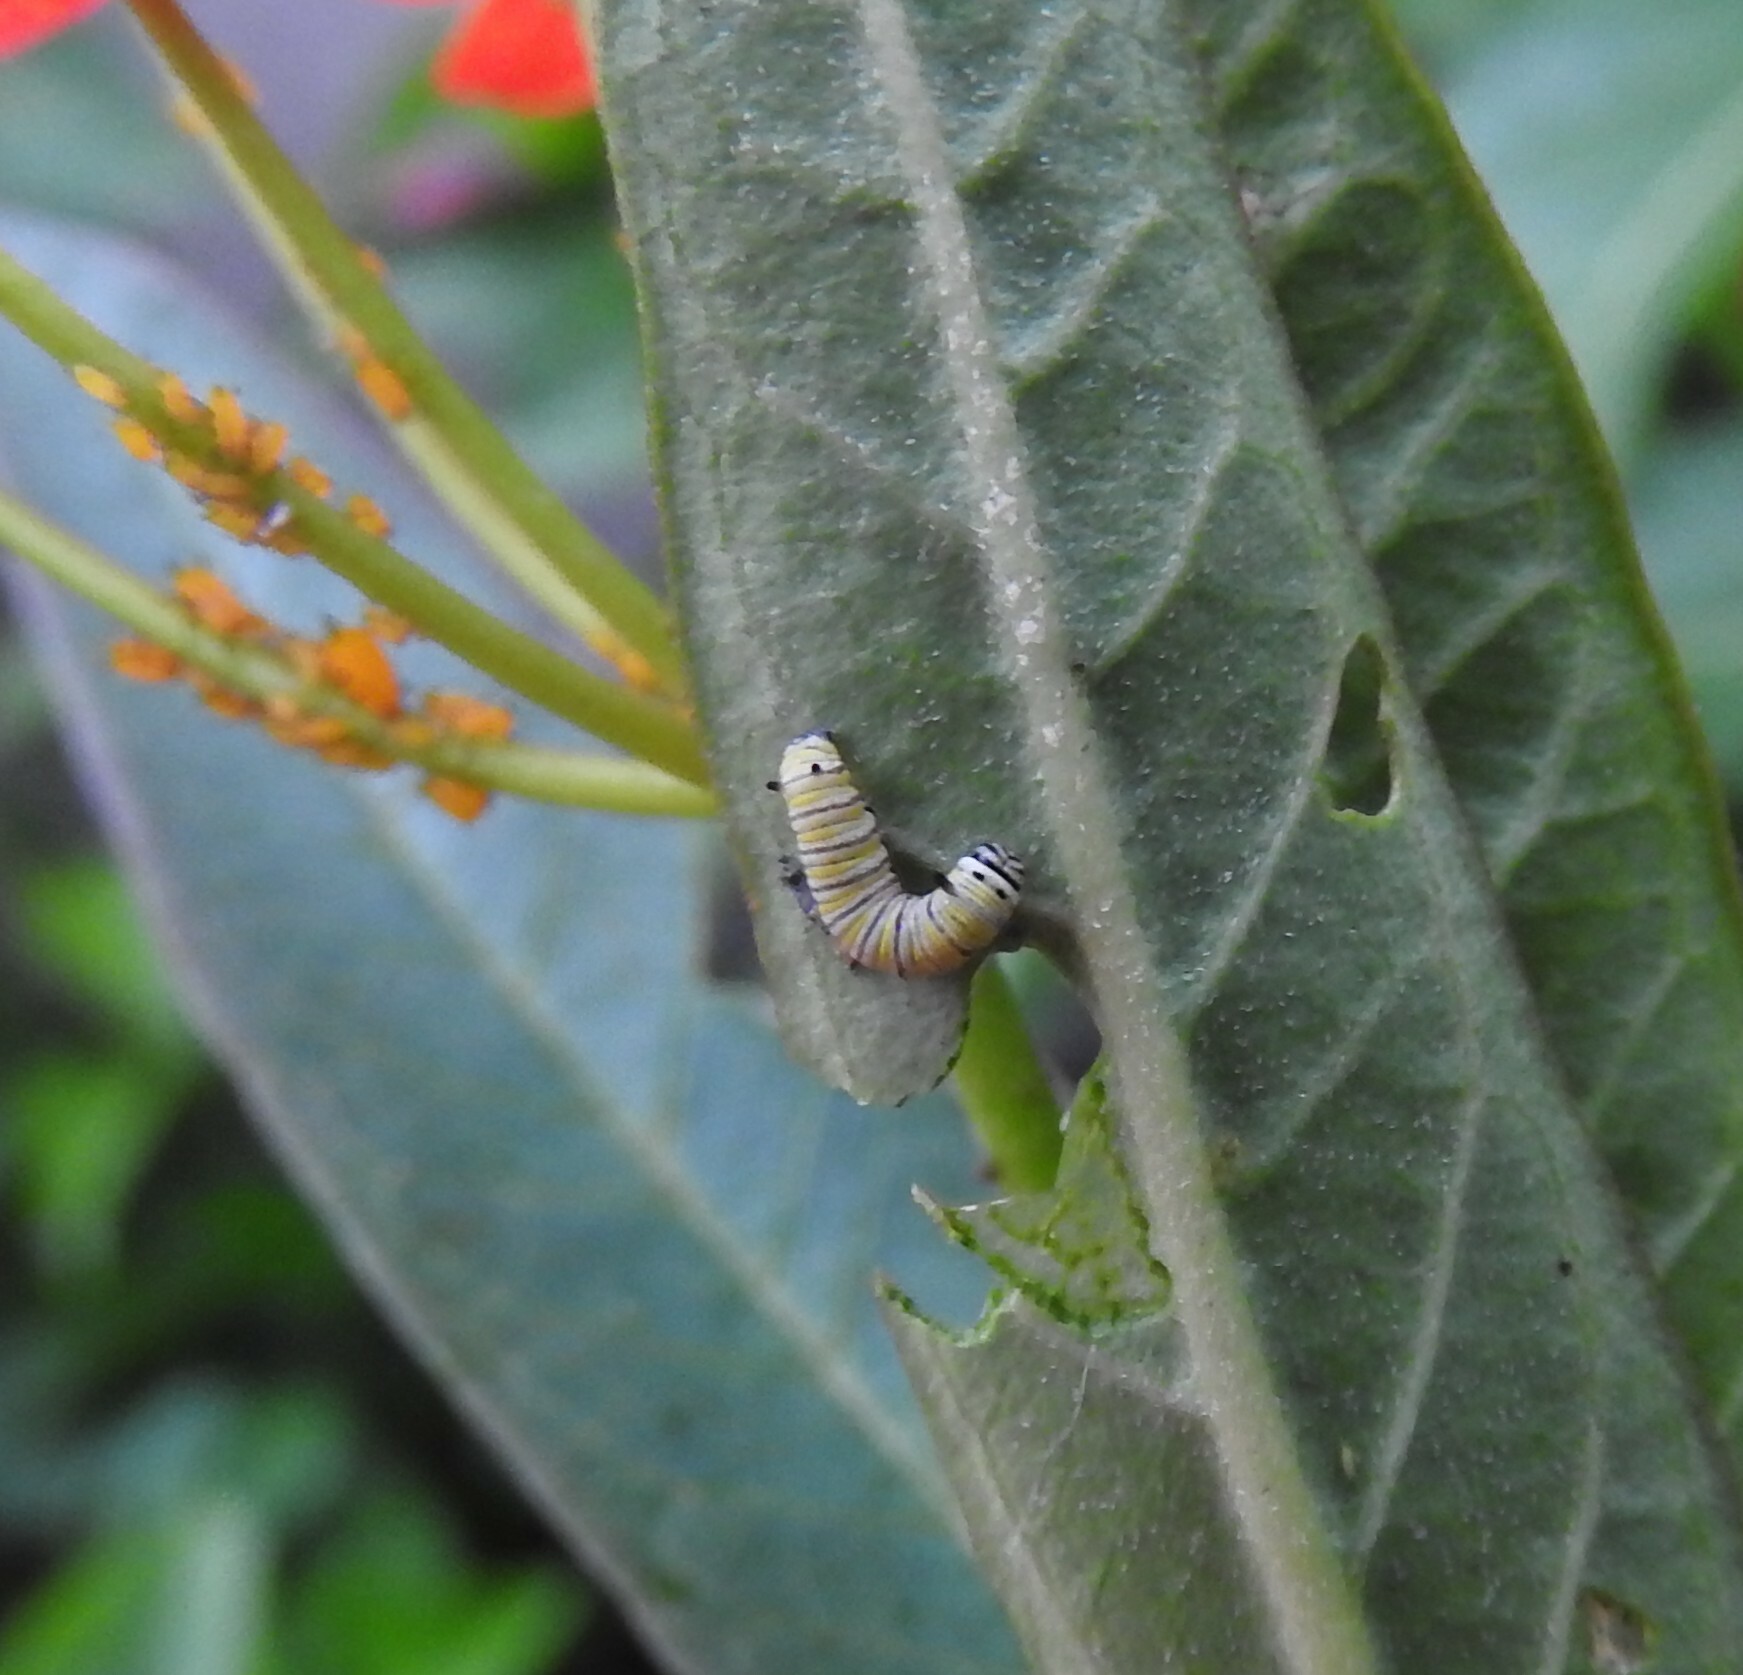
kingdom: Animalia
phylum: Arthropoda
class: Insecta
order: Lepidoptera
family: Nymphalidae
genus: Danaus
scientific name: Danaus plexippus
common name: Monarch
